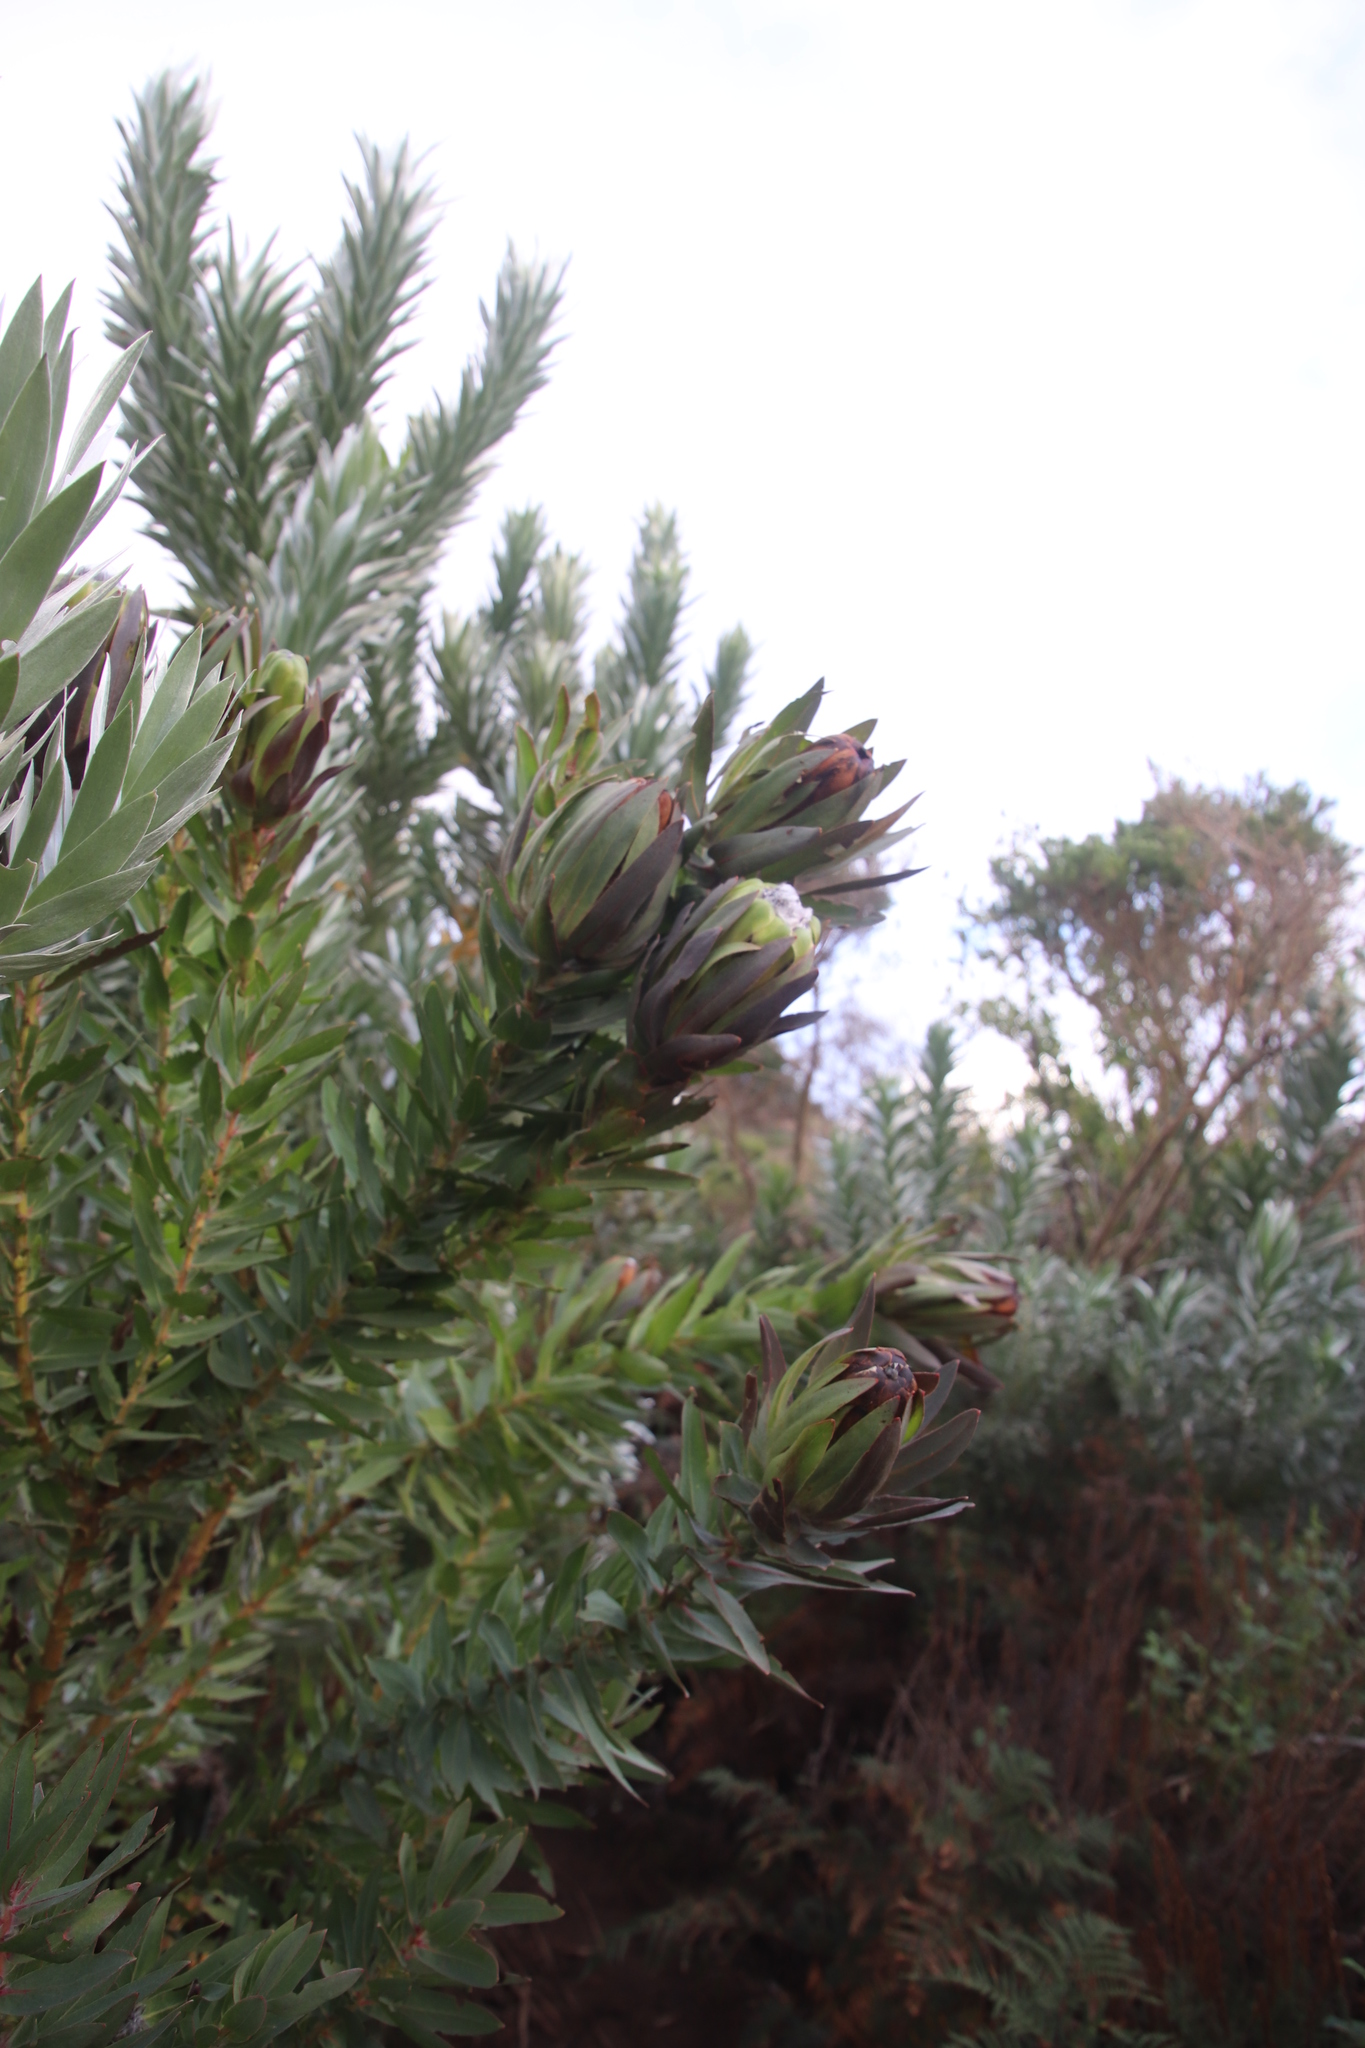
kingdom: Plantae
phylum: Tracheophyta
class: Magnoliopsida
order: Proteales
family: Proteaceae
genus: Protea
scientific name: Protea coronata
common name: Green sugarbush
